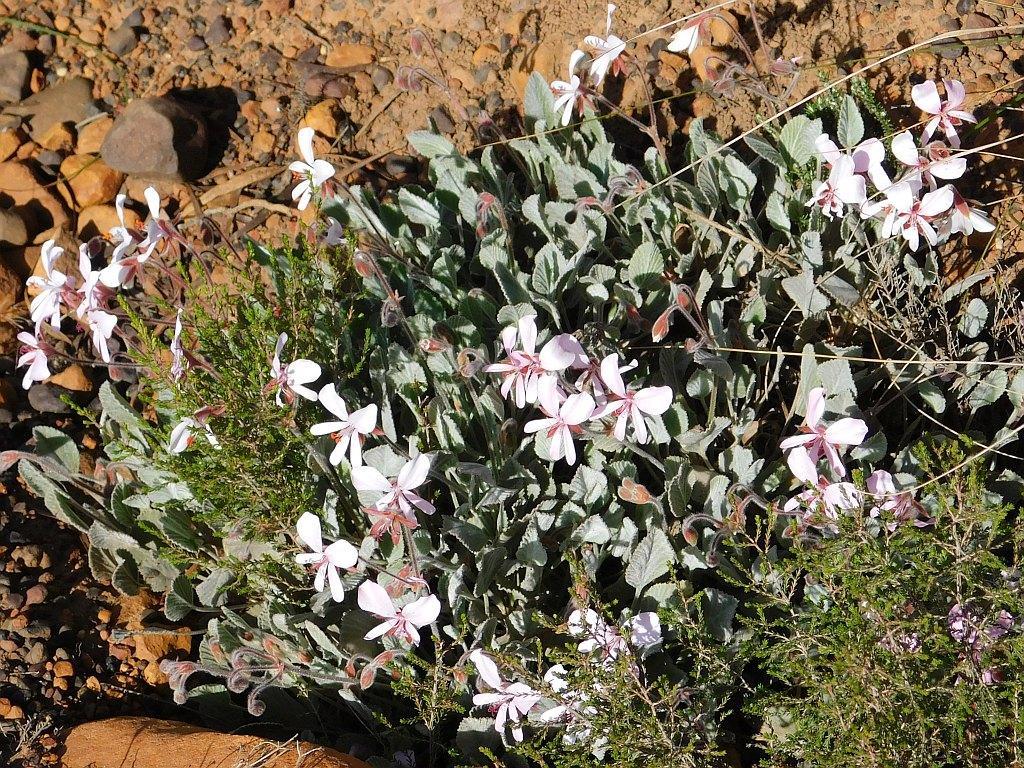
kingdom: Plantae
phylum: Tracheophyta
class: Magnoliopsida
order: Geraniales
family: Geraniaceae
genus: Pelargonium
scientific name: Pelargonium ovale
